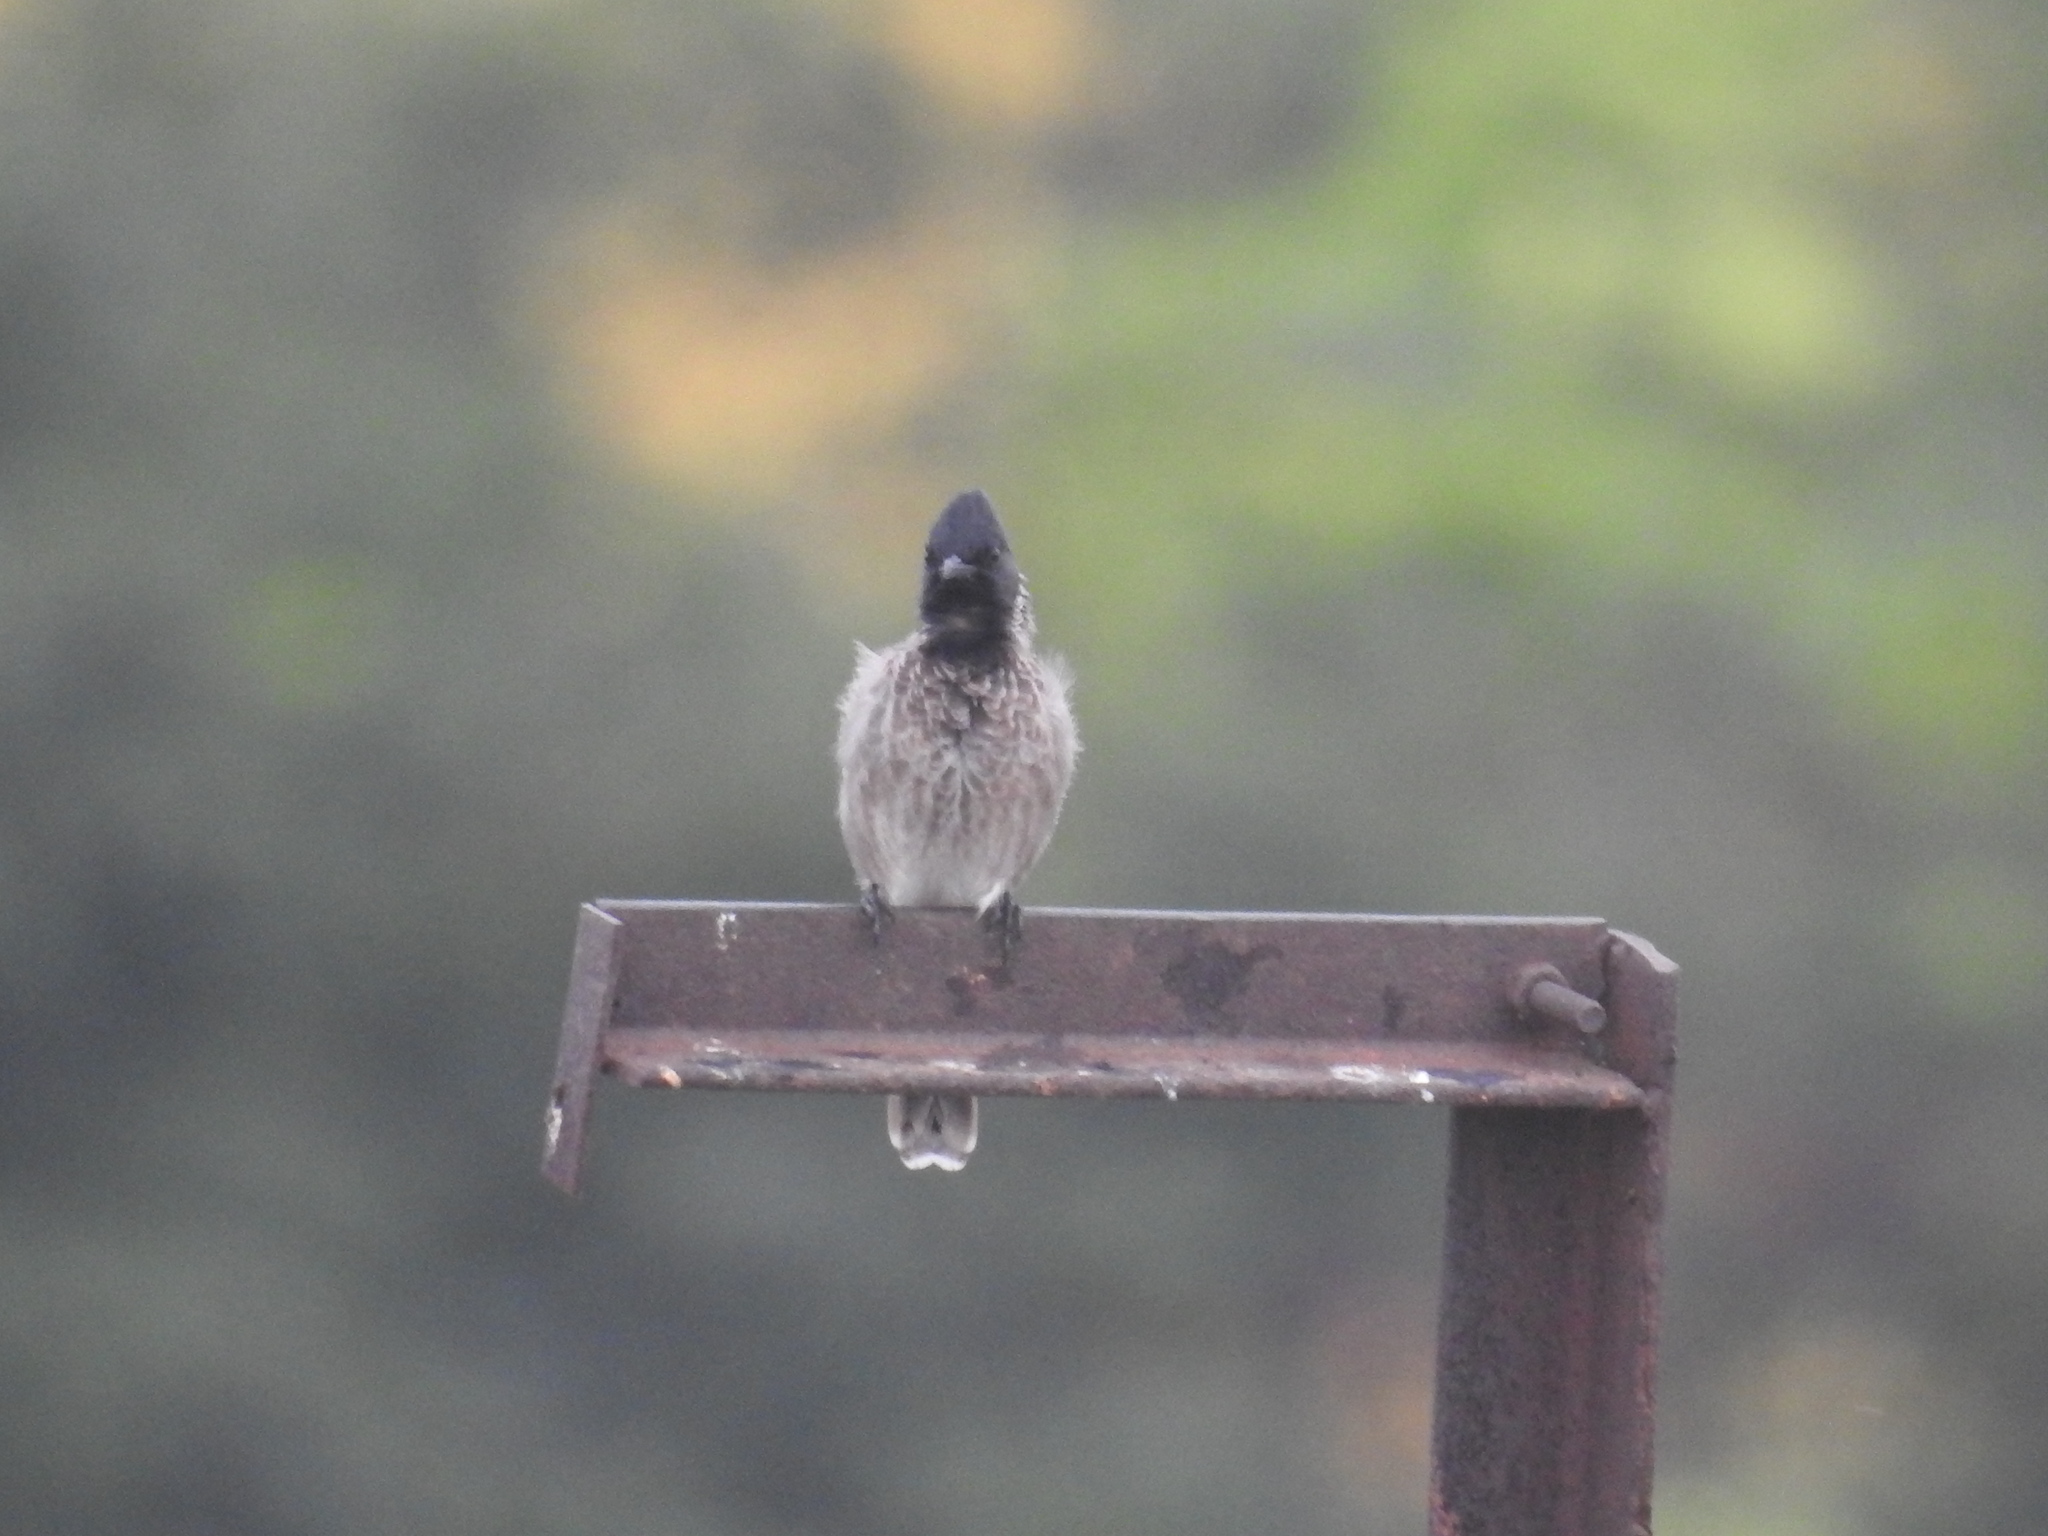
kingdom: Animalia
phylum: Chordata
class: Aves
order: Passeriformes
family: Pycnonotidae
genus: Pycnonotus
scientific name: Pycnonotus cafer
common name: Red-vented bulbul
